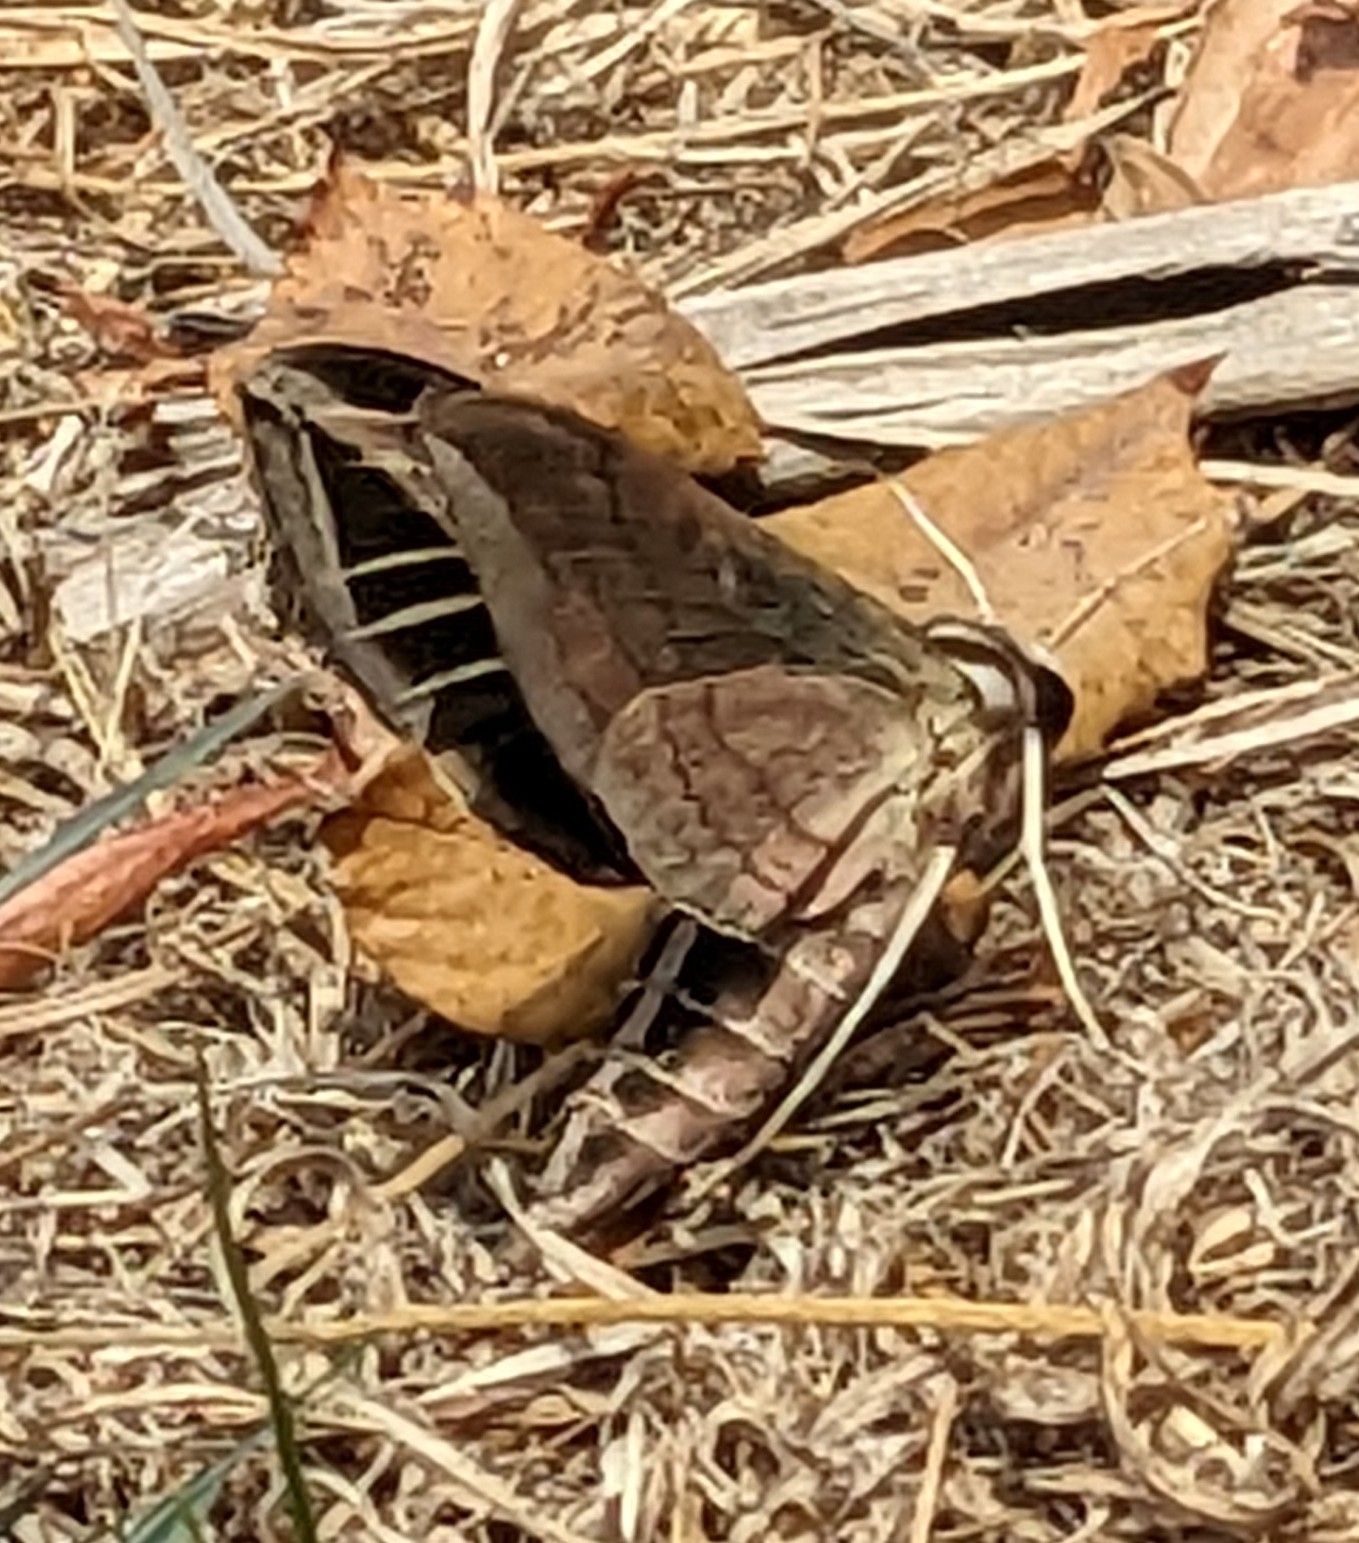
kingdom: Animalia
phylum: Arthropoda
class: Insecta
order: Lepidoptera
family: Sphingidae
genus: Eumorpha
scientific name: Eumorpha vitis
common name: Vine sphinx
